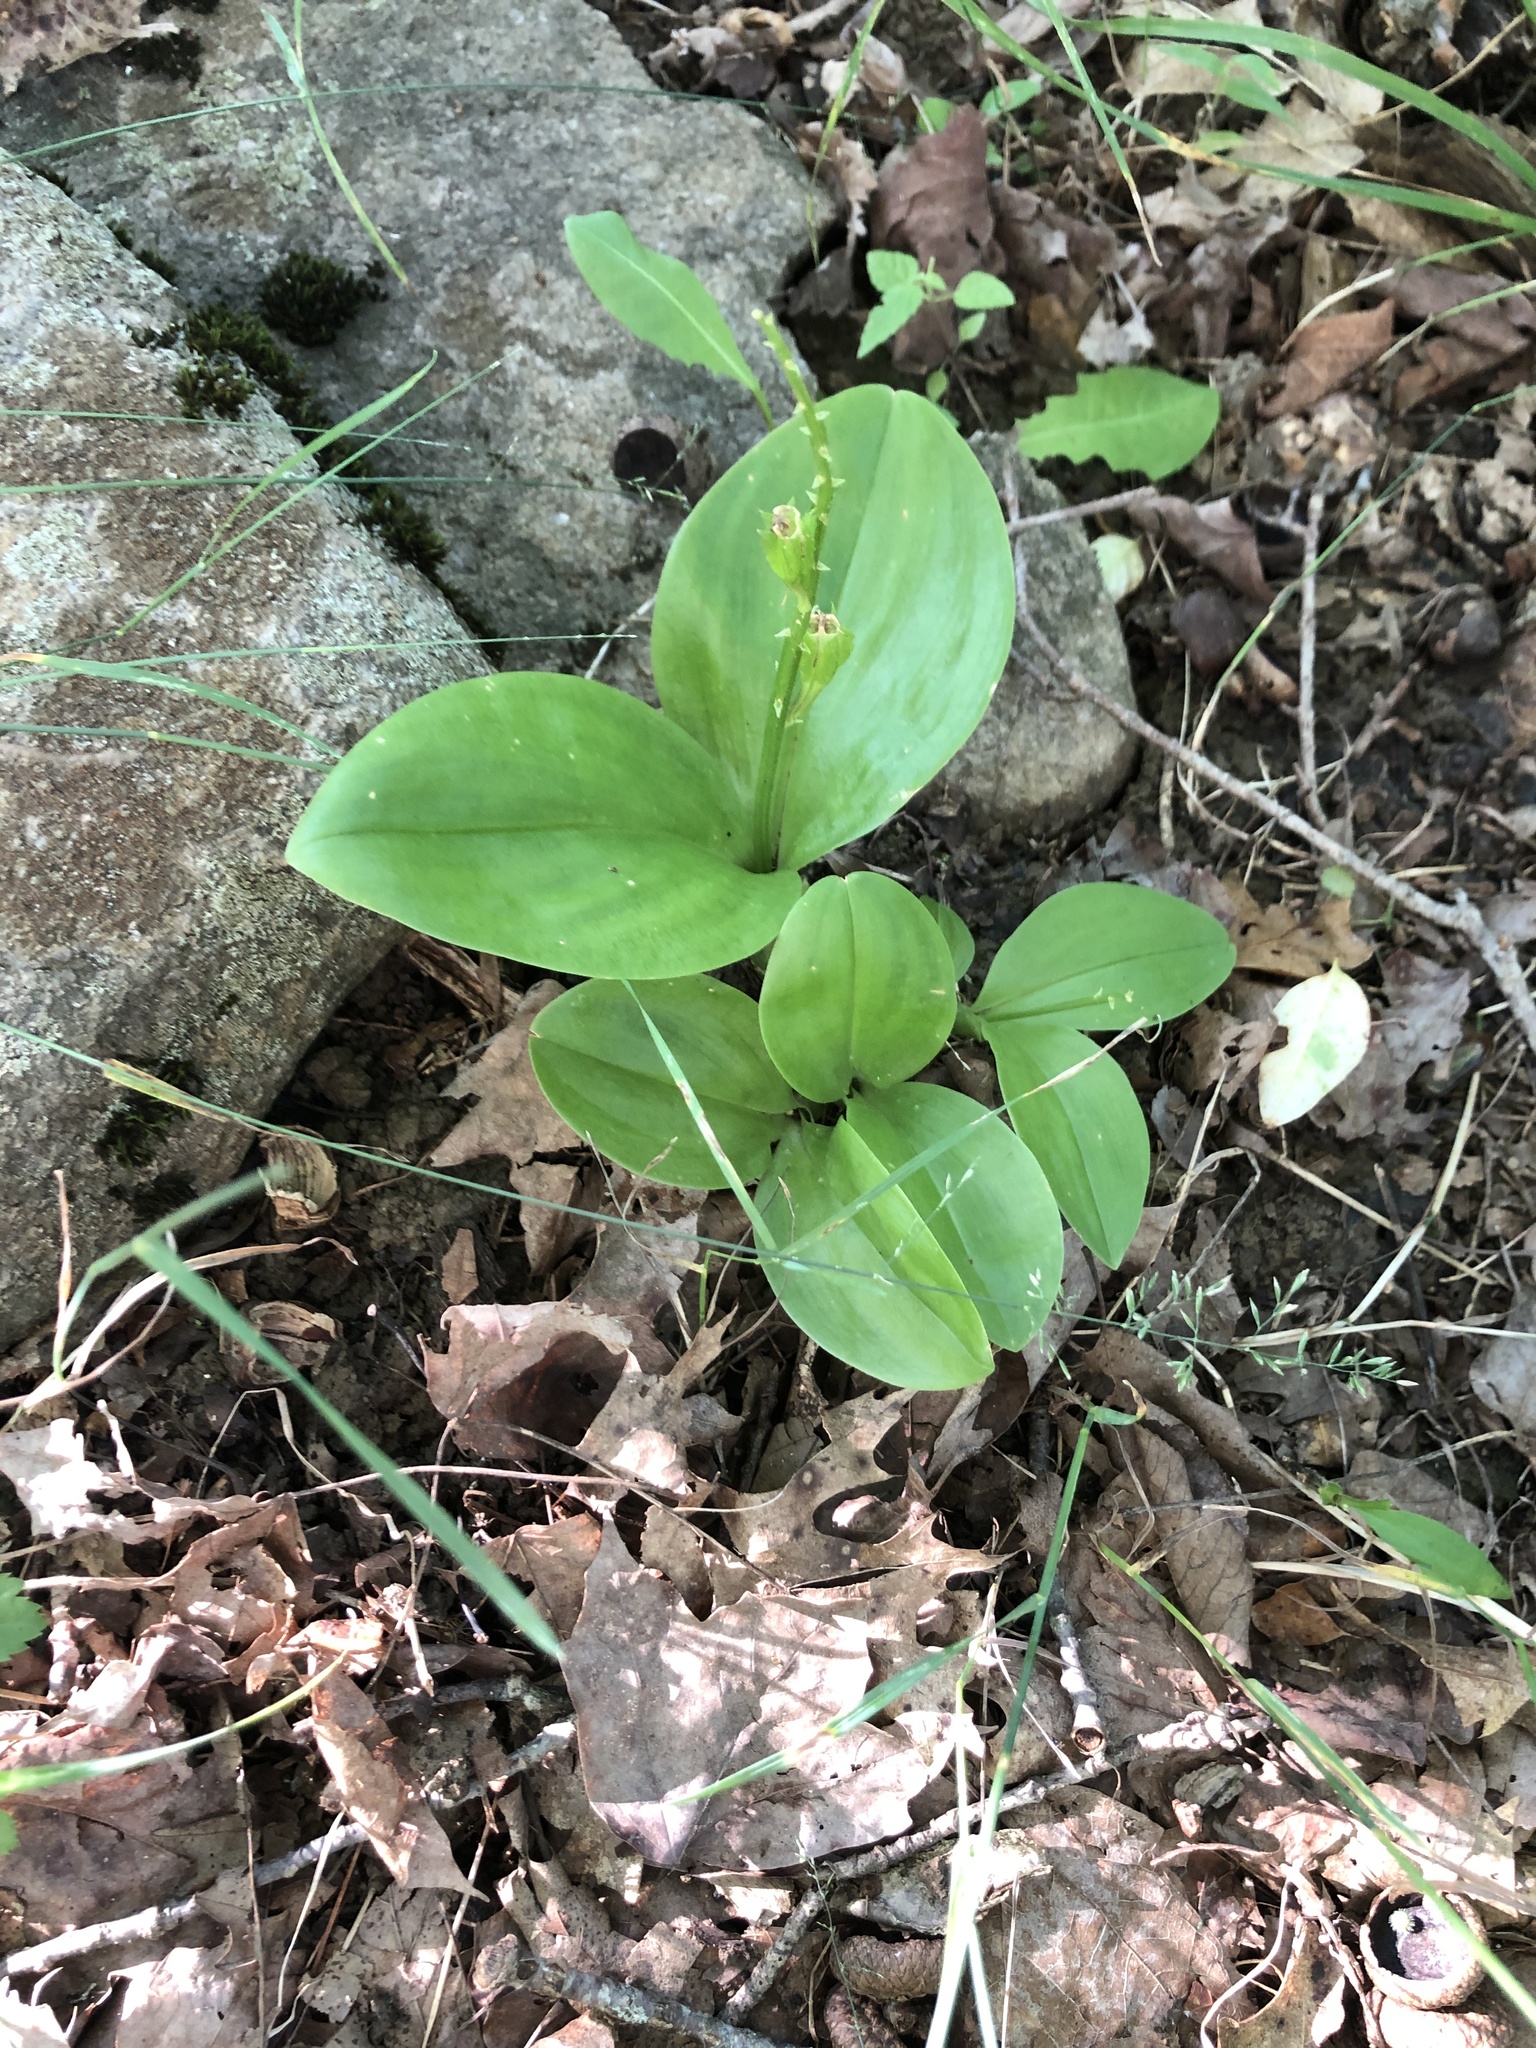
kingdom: Plantae
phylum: Tracheophyta
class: Liliopsida
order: Asparagales
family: Orchidaceae
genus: Liparis
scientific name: Liparis liliifolia
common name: Brown wide-lip orchid
